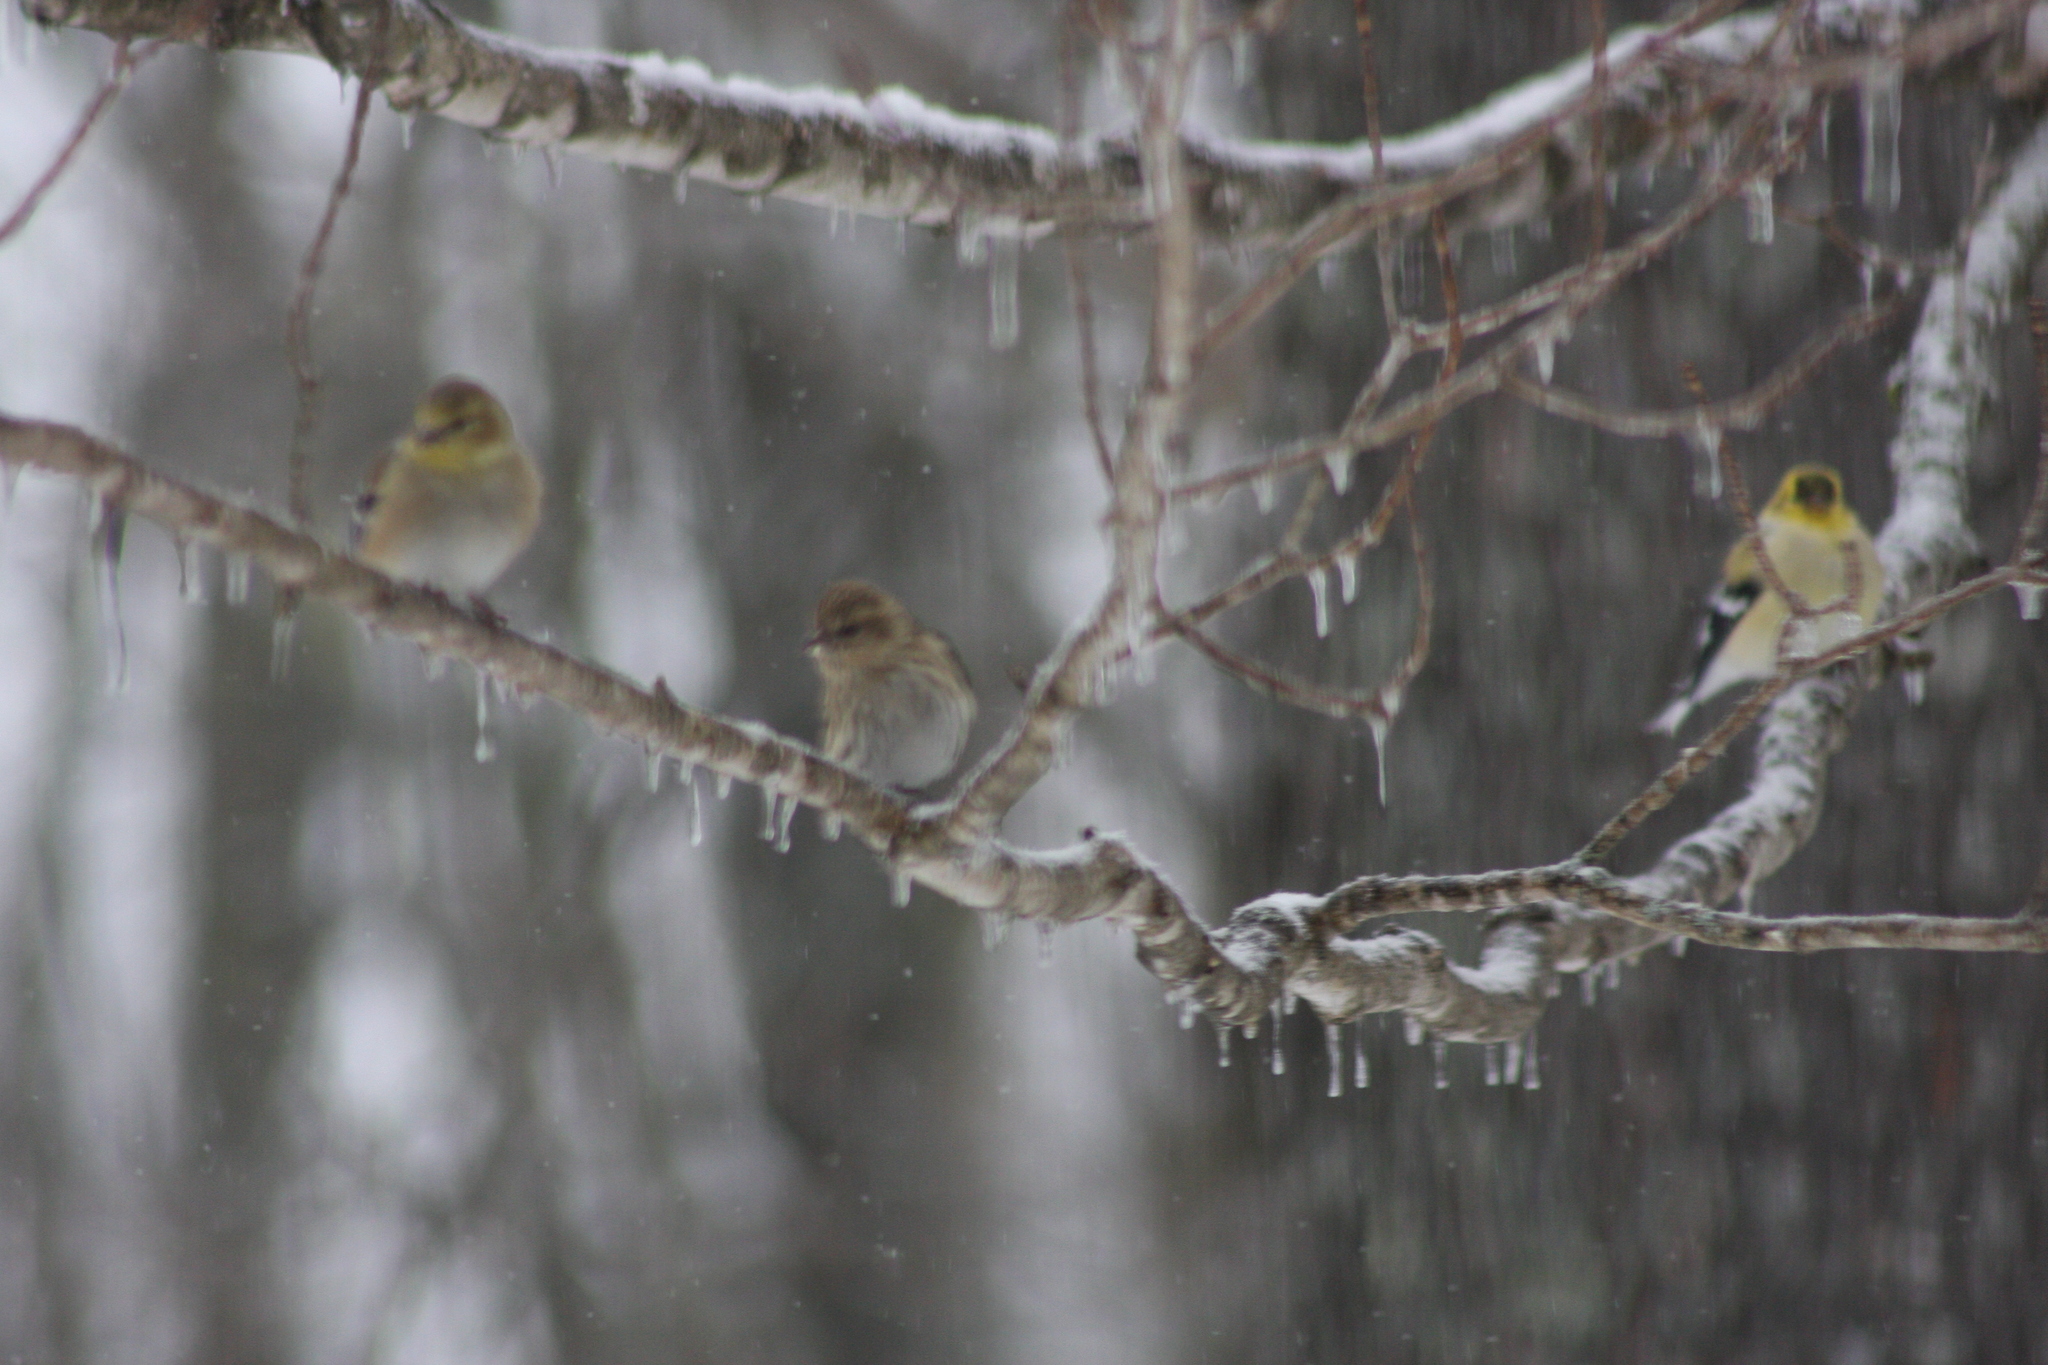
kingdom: Animalia
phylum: Chordata
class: Aves
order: Passeriformes
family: Fringillidae
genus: Spinus
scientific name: Spinus tristis
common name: American goldfinch
